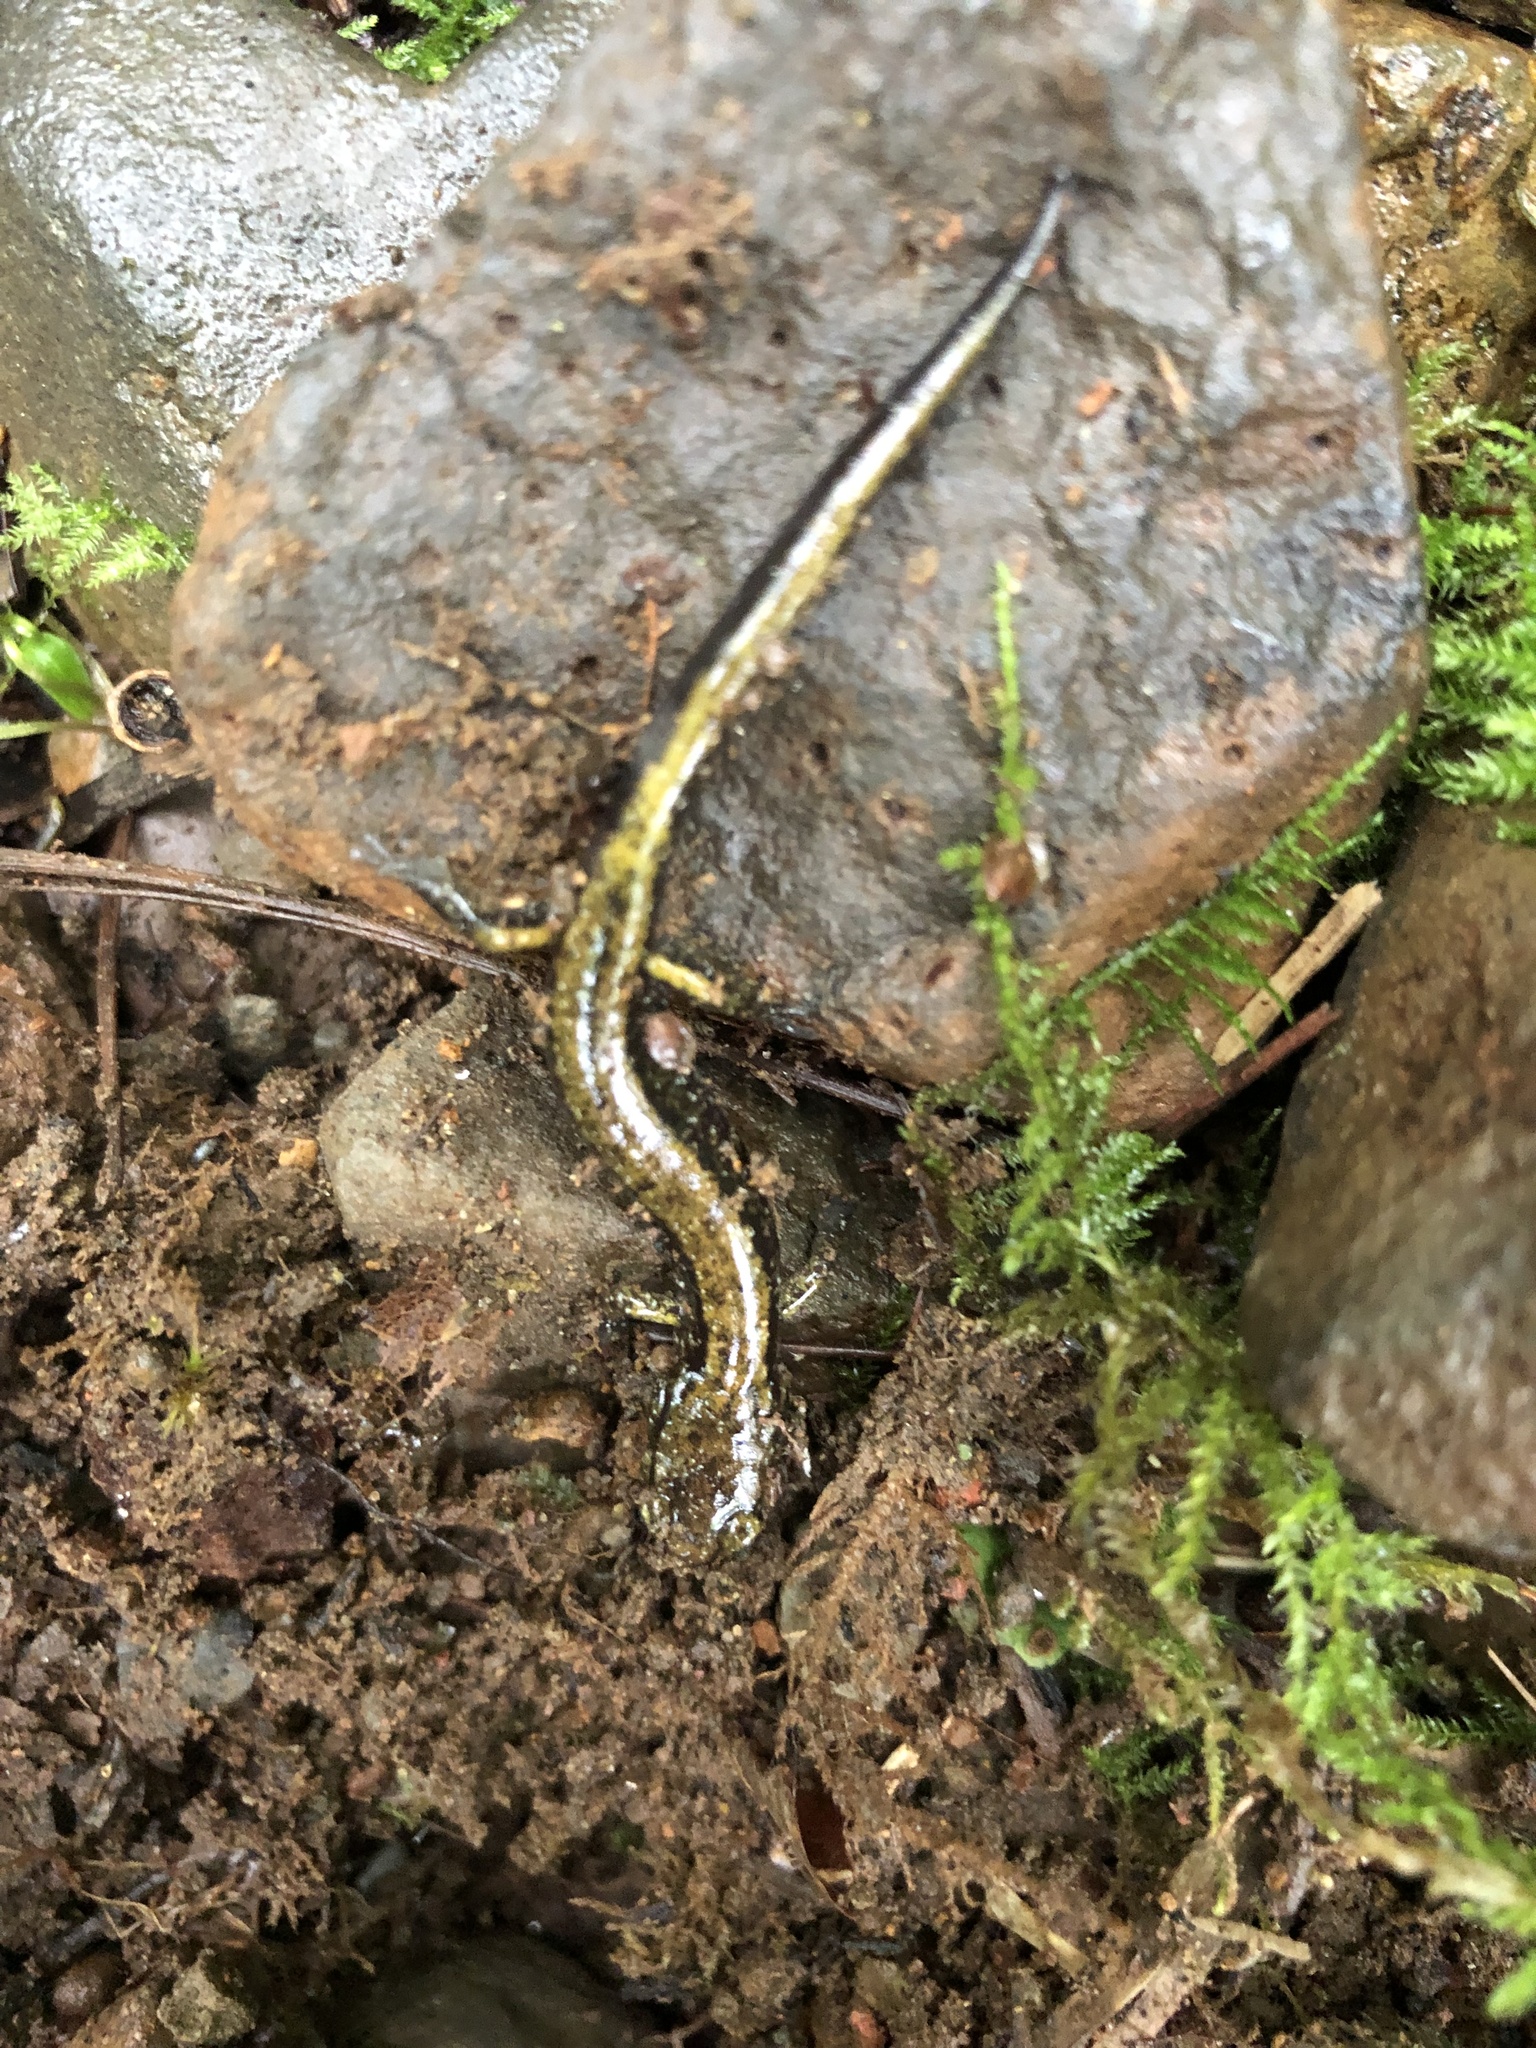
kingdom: Animalia
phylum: Chordata
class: Amphibia
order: Caudata
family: Plethodontidae
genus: Plethodon
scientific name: Plethodon dunni
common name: Dunn's salamander
